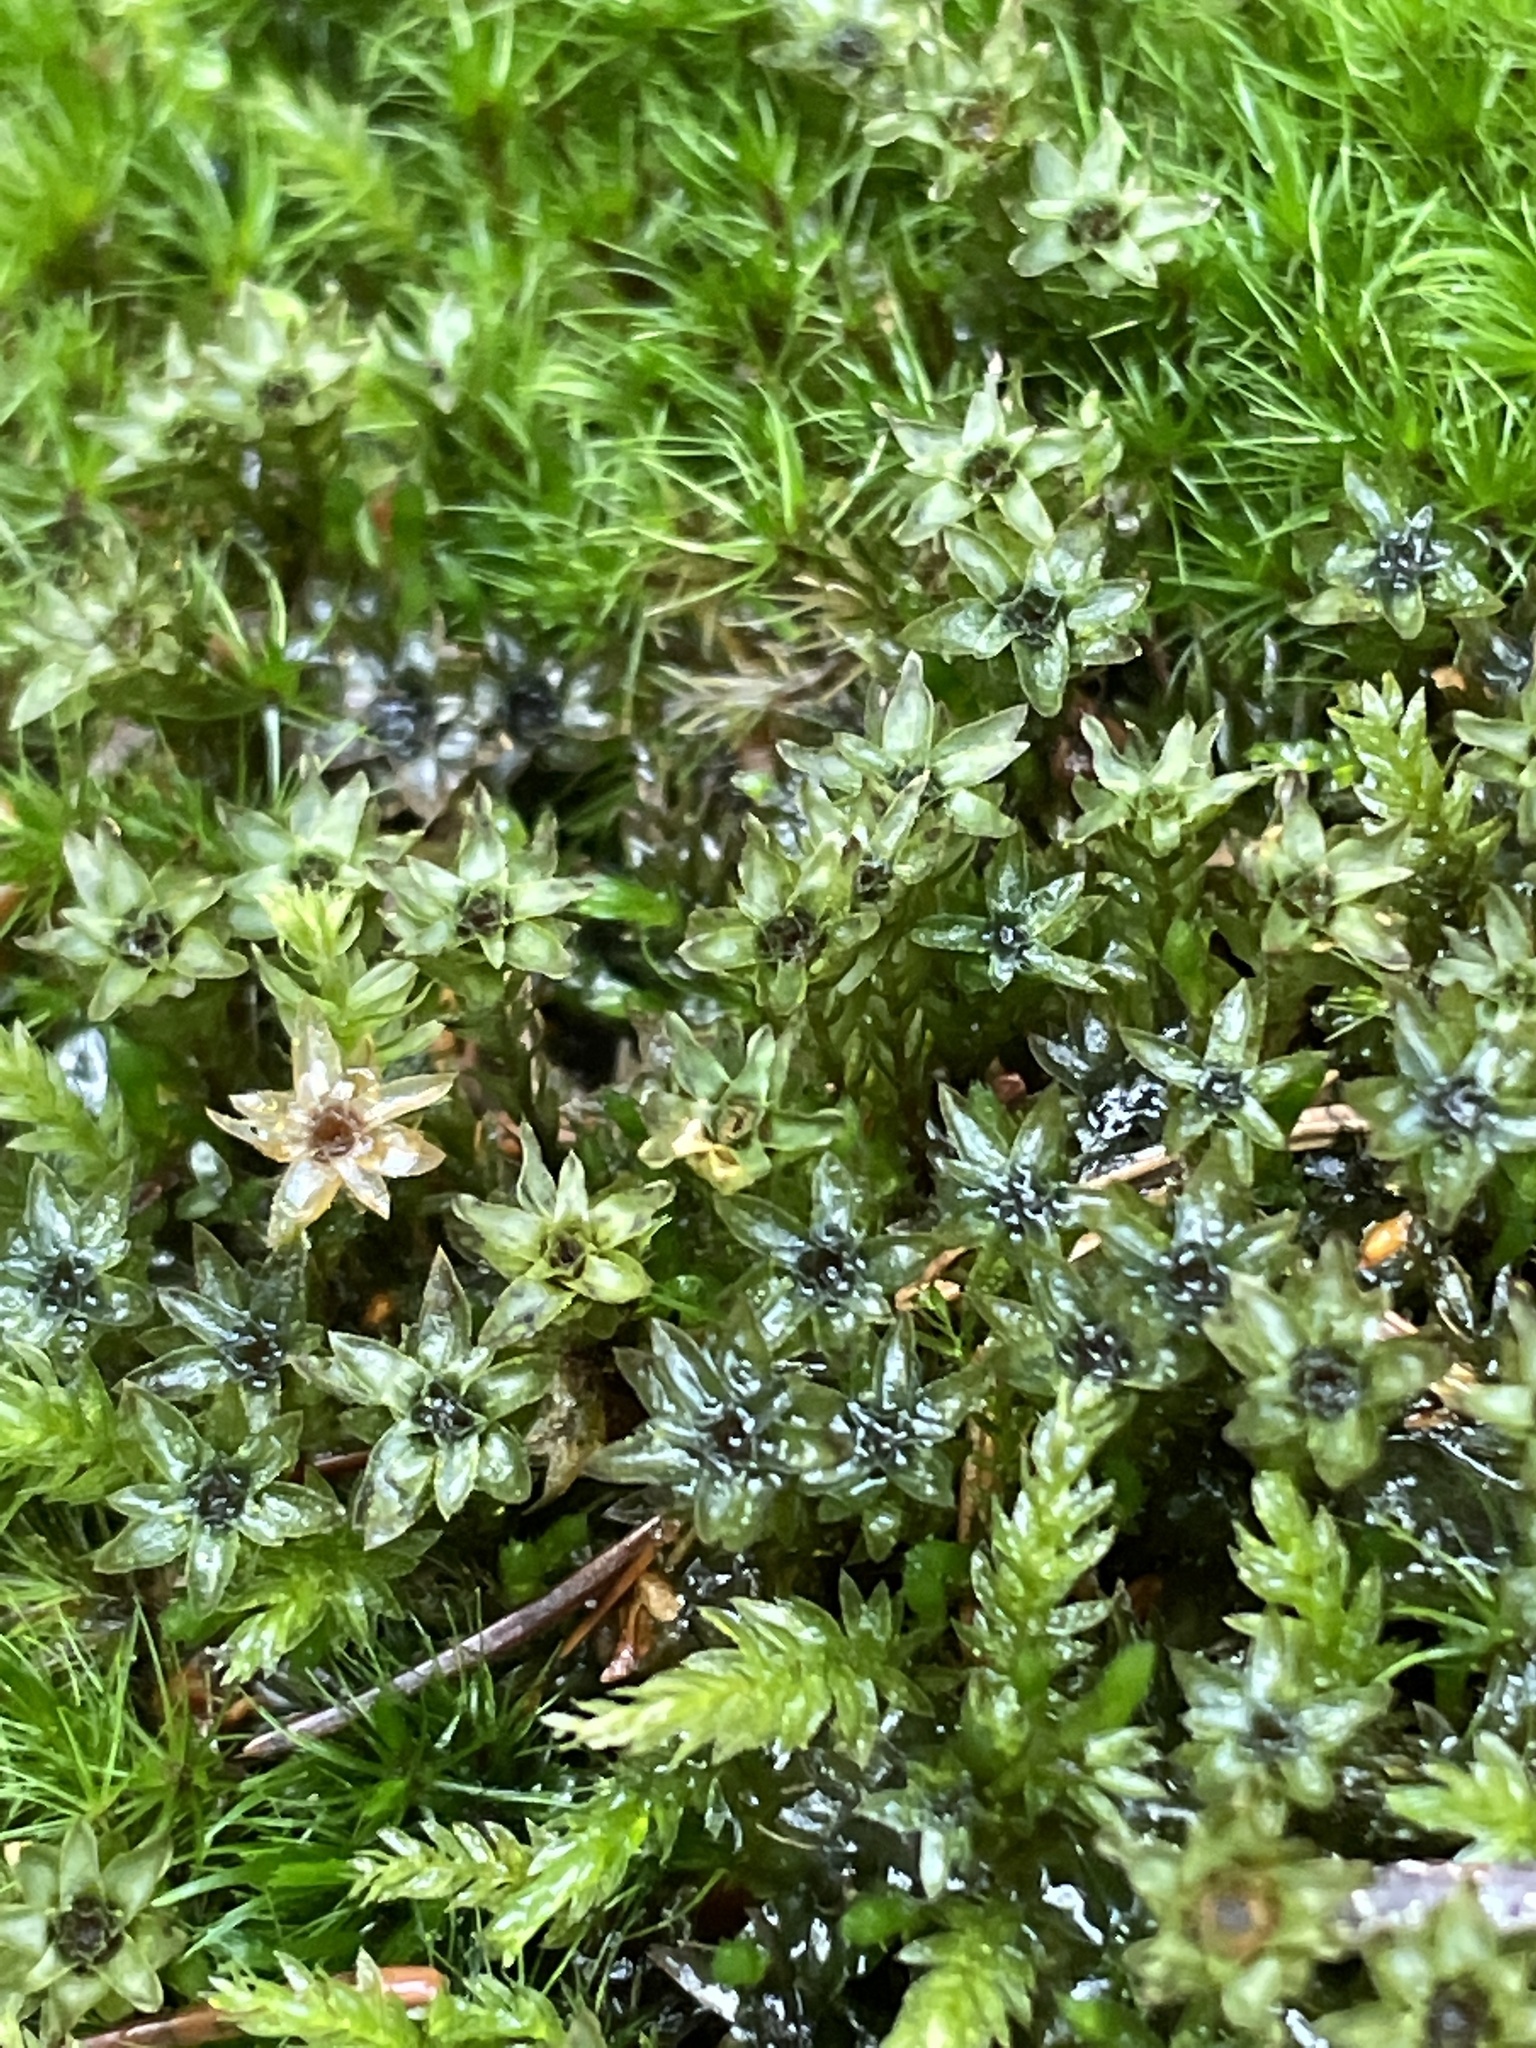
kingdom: Plantae
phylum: Bryophyta
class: Bryopsida
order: Bryales
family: Mniaceae
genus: Mnium
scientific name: Mnium hornum
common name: Swan's-neck leafy moss
